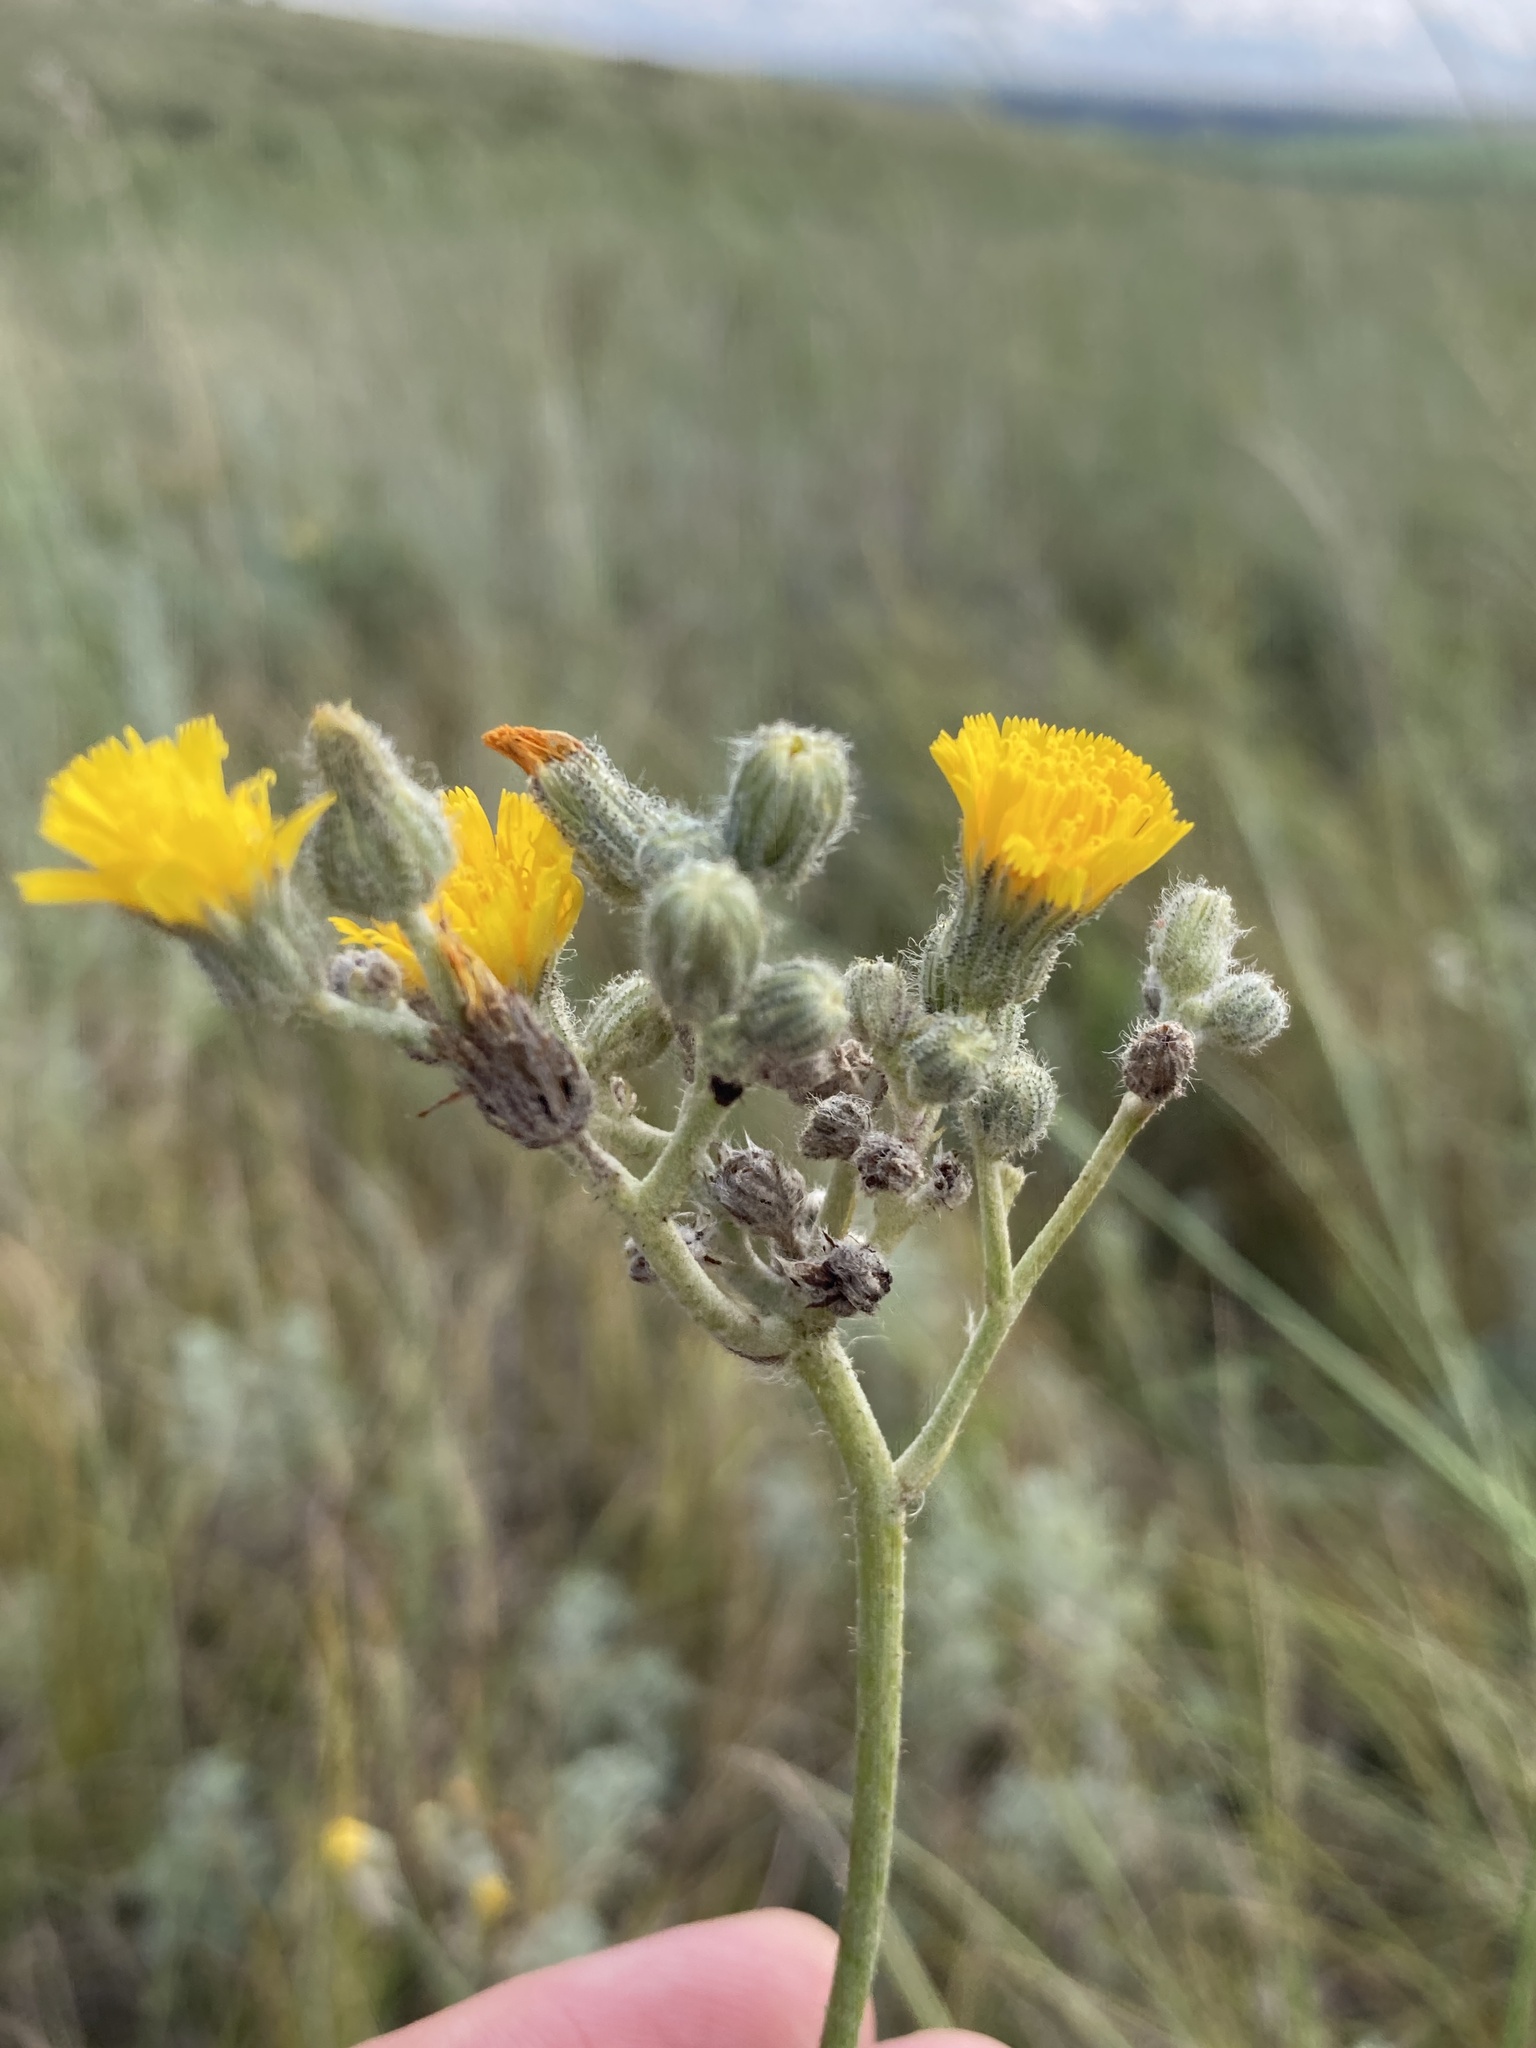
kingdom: Plantae
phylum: Tracheophyta
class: Magnoliopsida
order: Asterales
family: Asteraceae
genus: Pilosella
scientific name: Pilosella echioides
